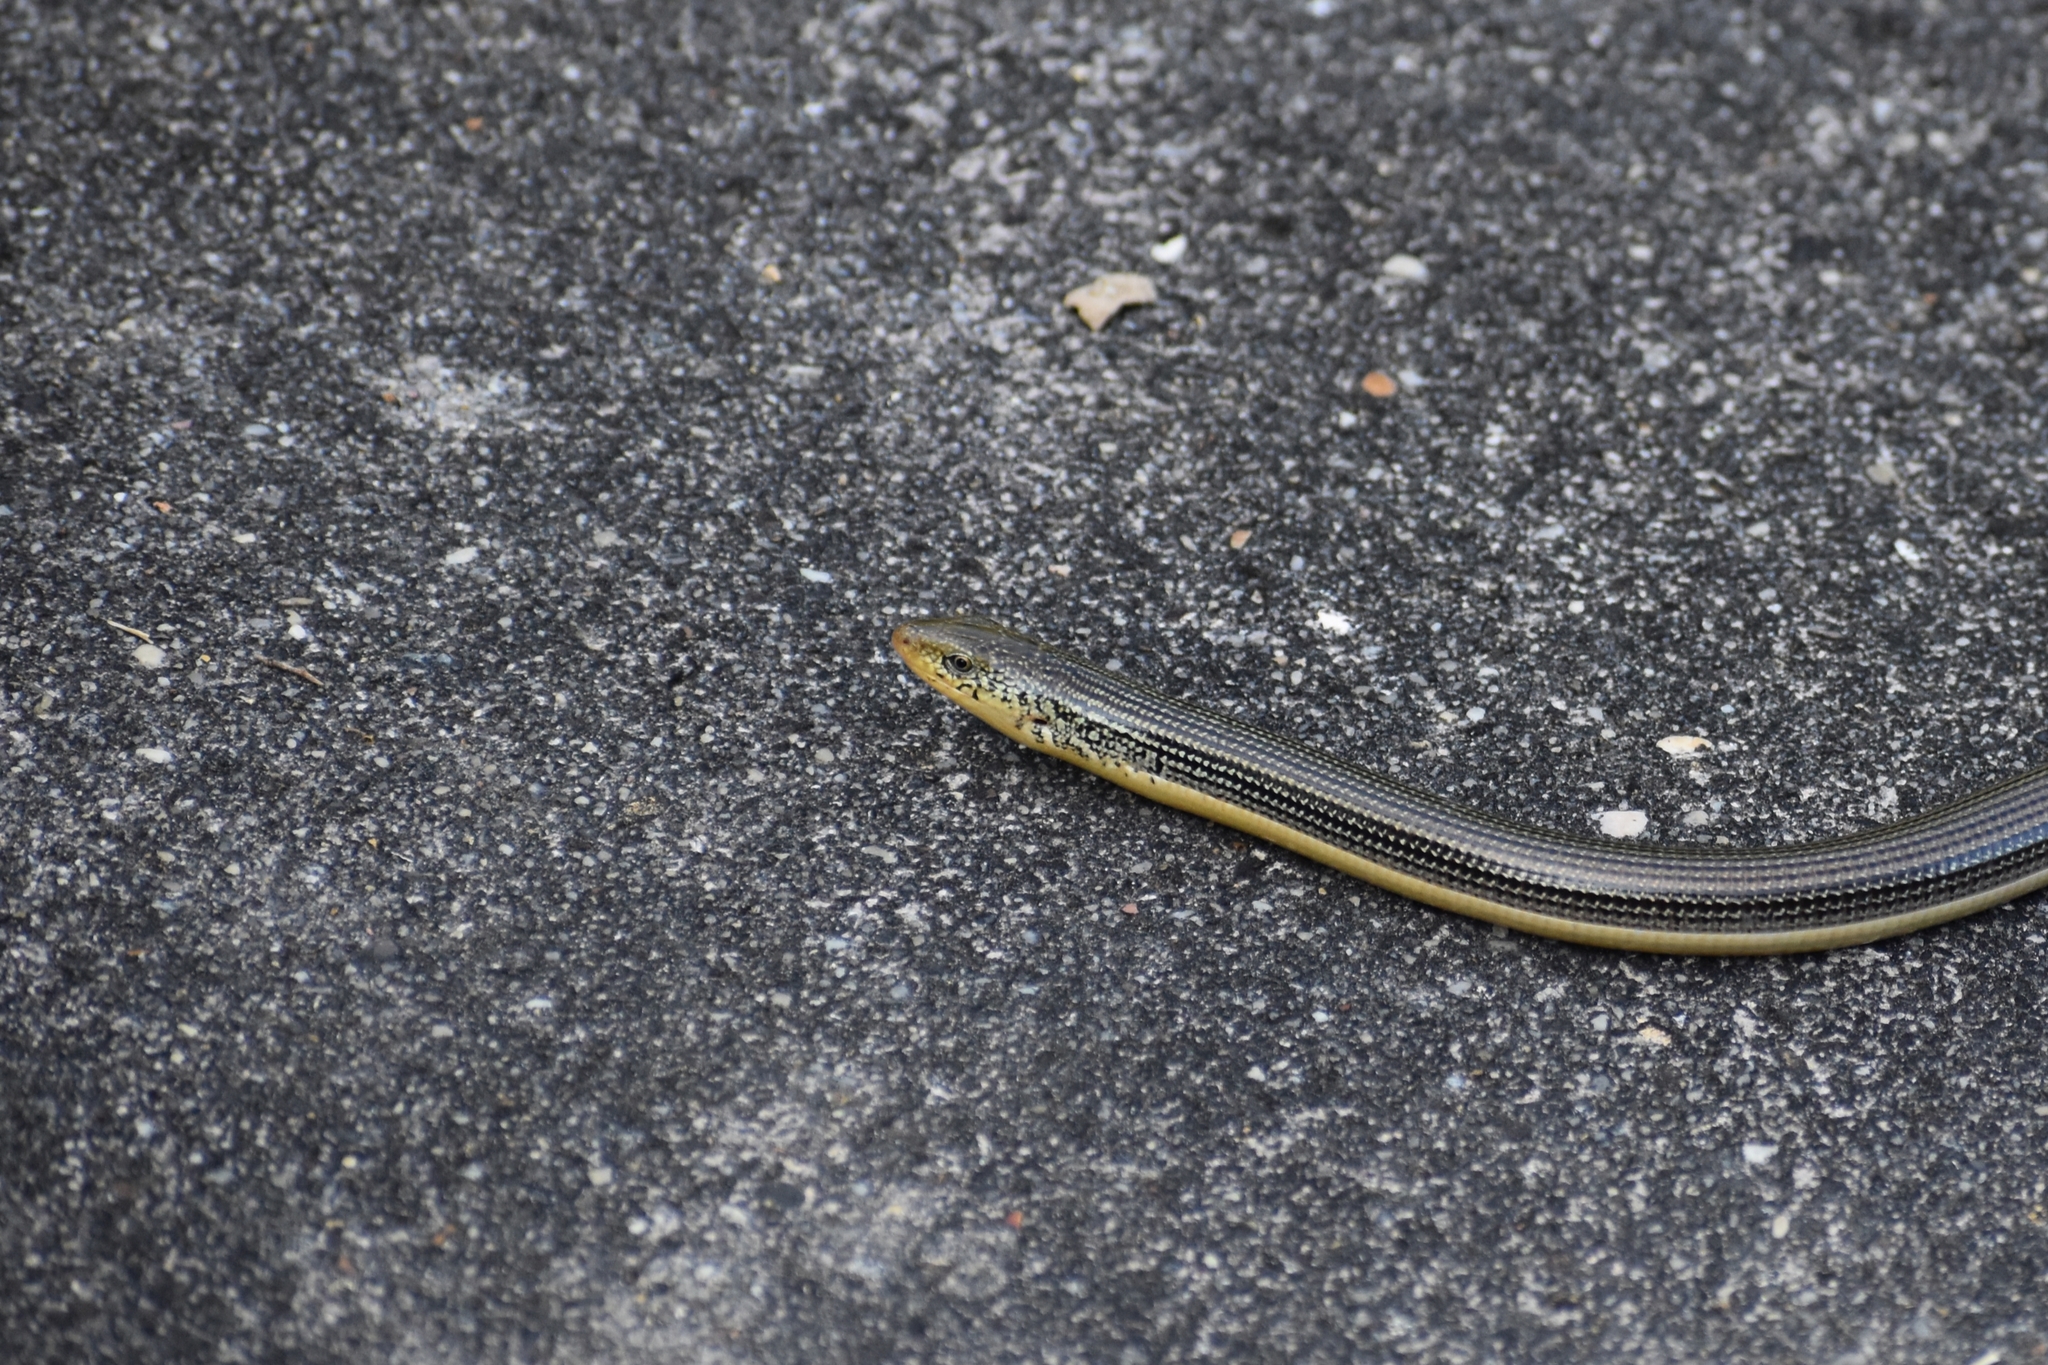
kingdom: Animalia
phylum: Chordata
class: Squamata
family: Anguidae
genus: Ophisaurus
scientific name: Ophisaurus ventralis
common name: Eastern glass lizard
